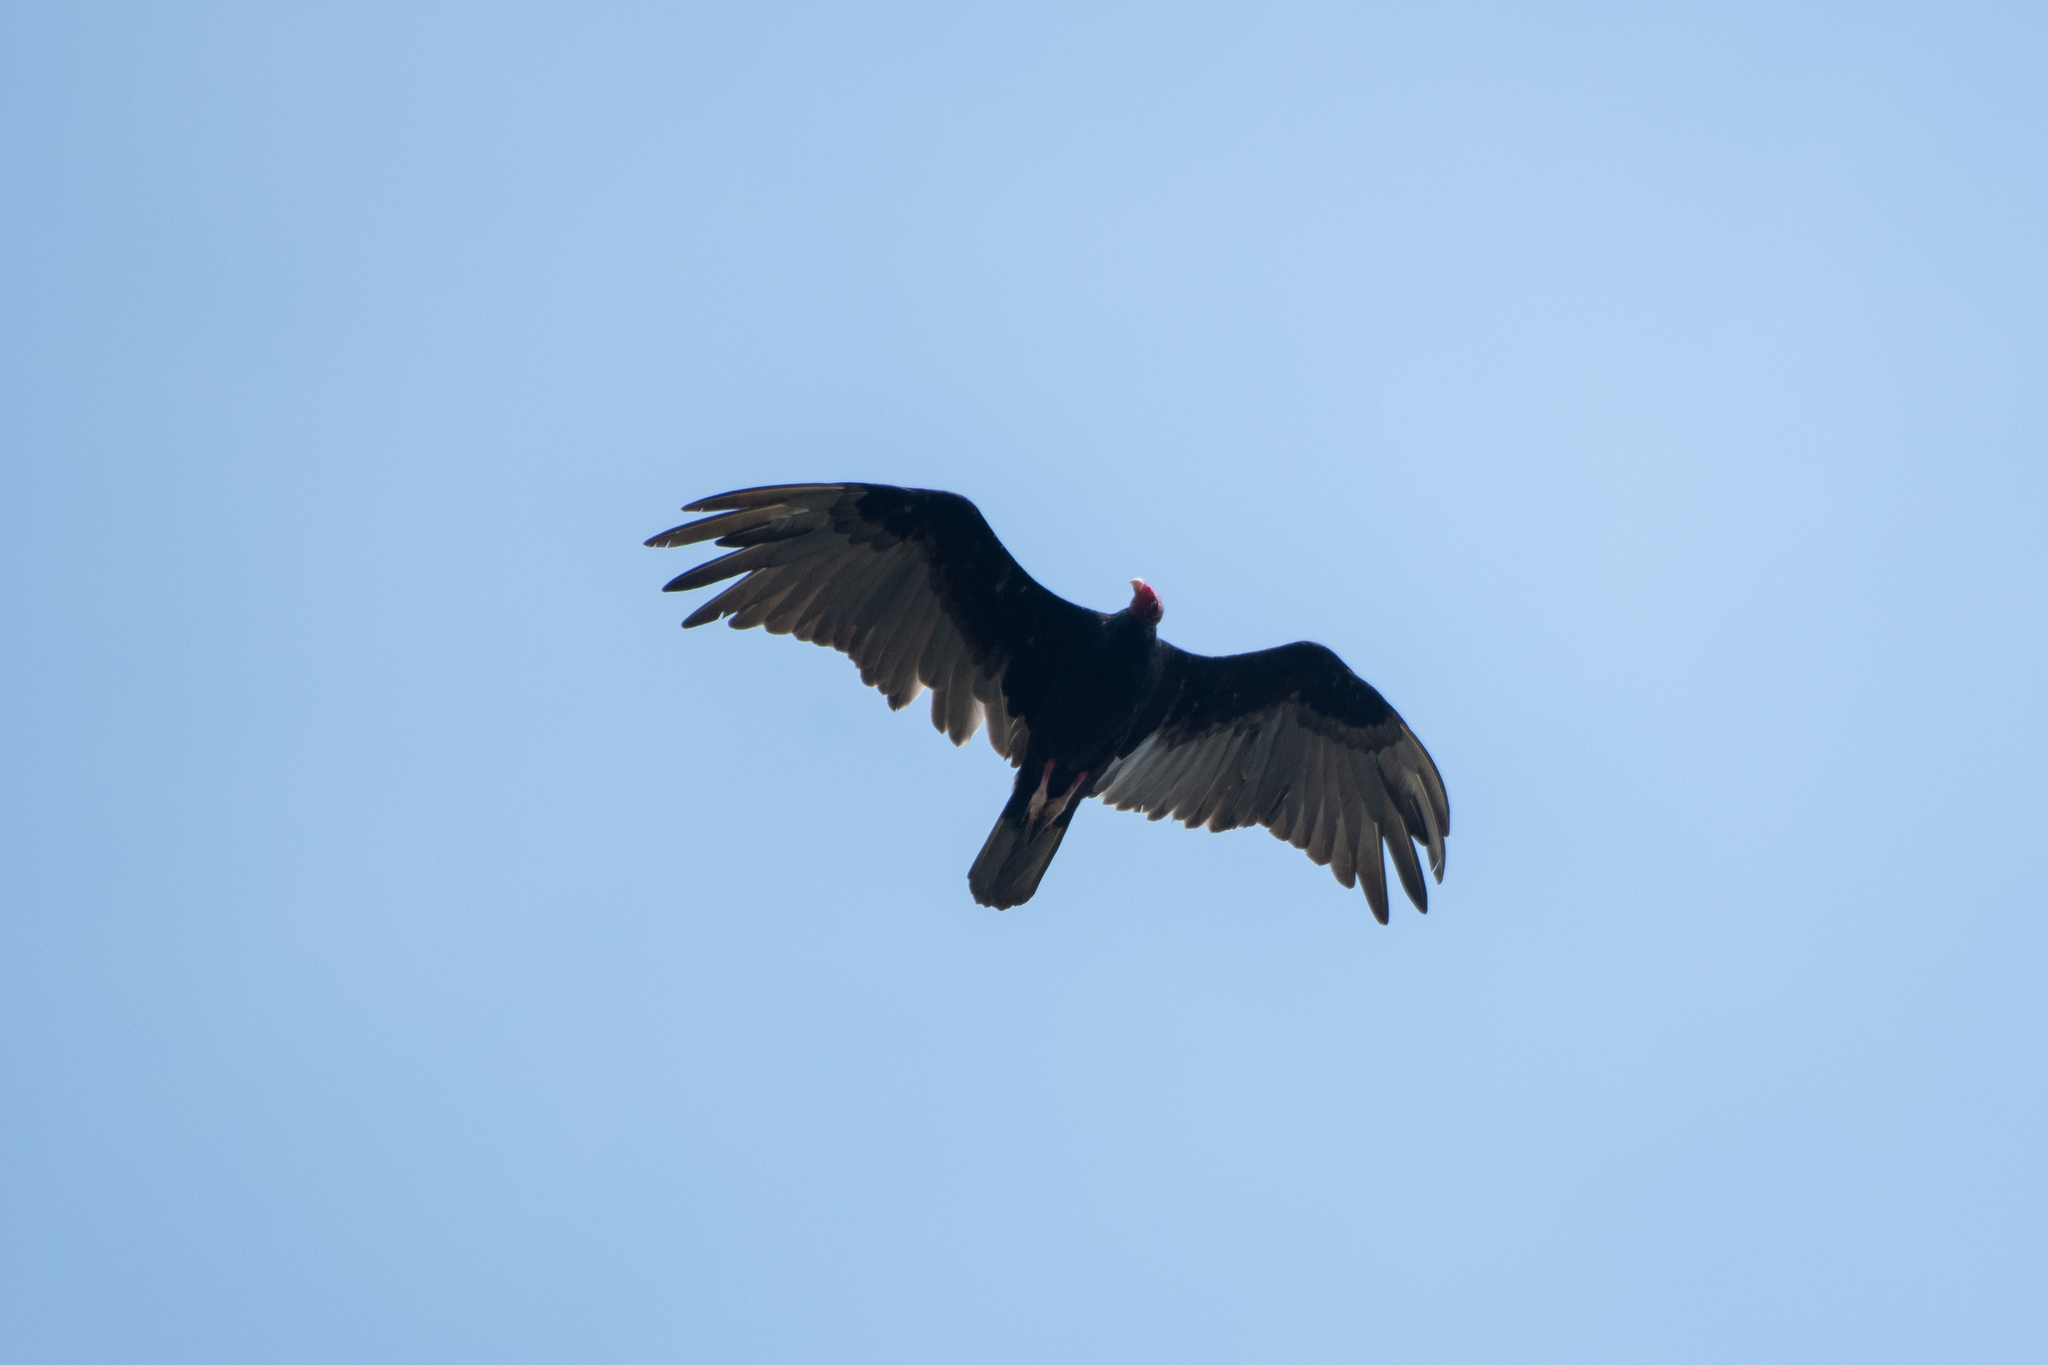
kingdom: Animalia
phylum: Chordata
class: Aves
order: Accipitriformes
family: Cathartidae
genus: Cathartes
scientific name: Cathartes aura
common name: Turkey vulture
